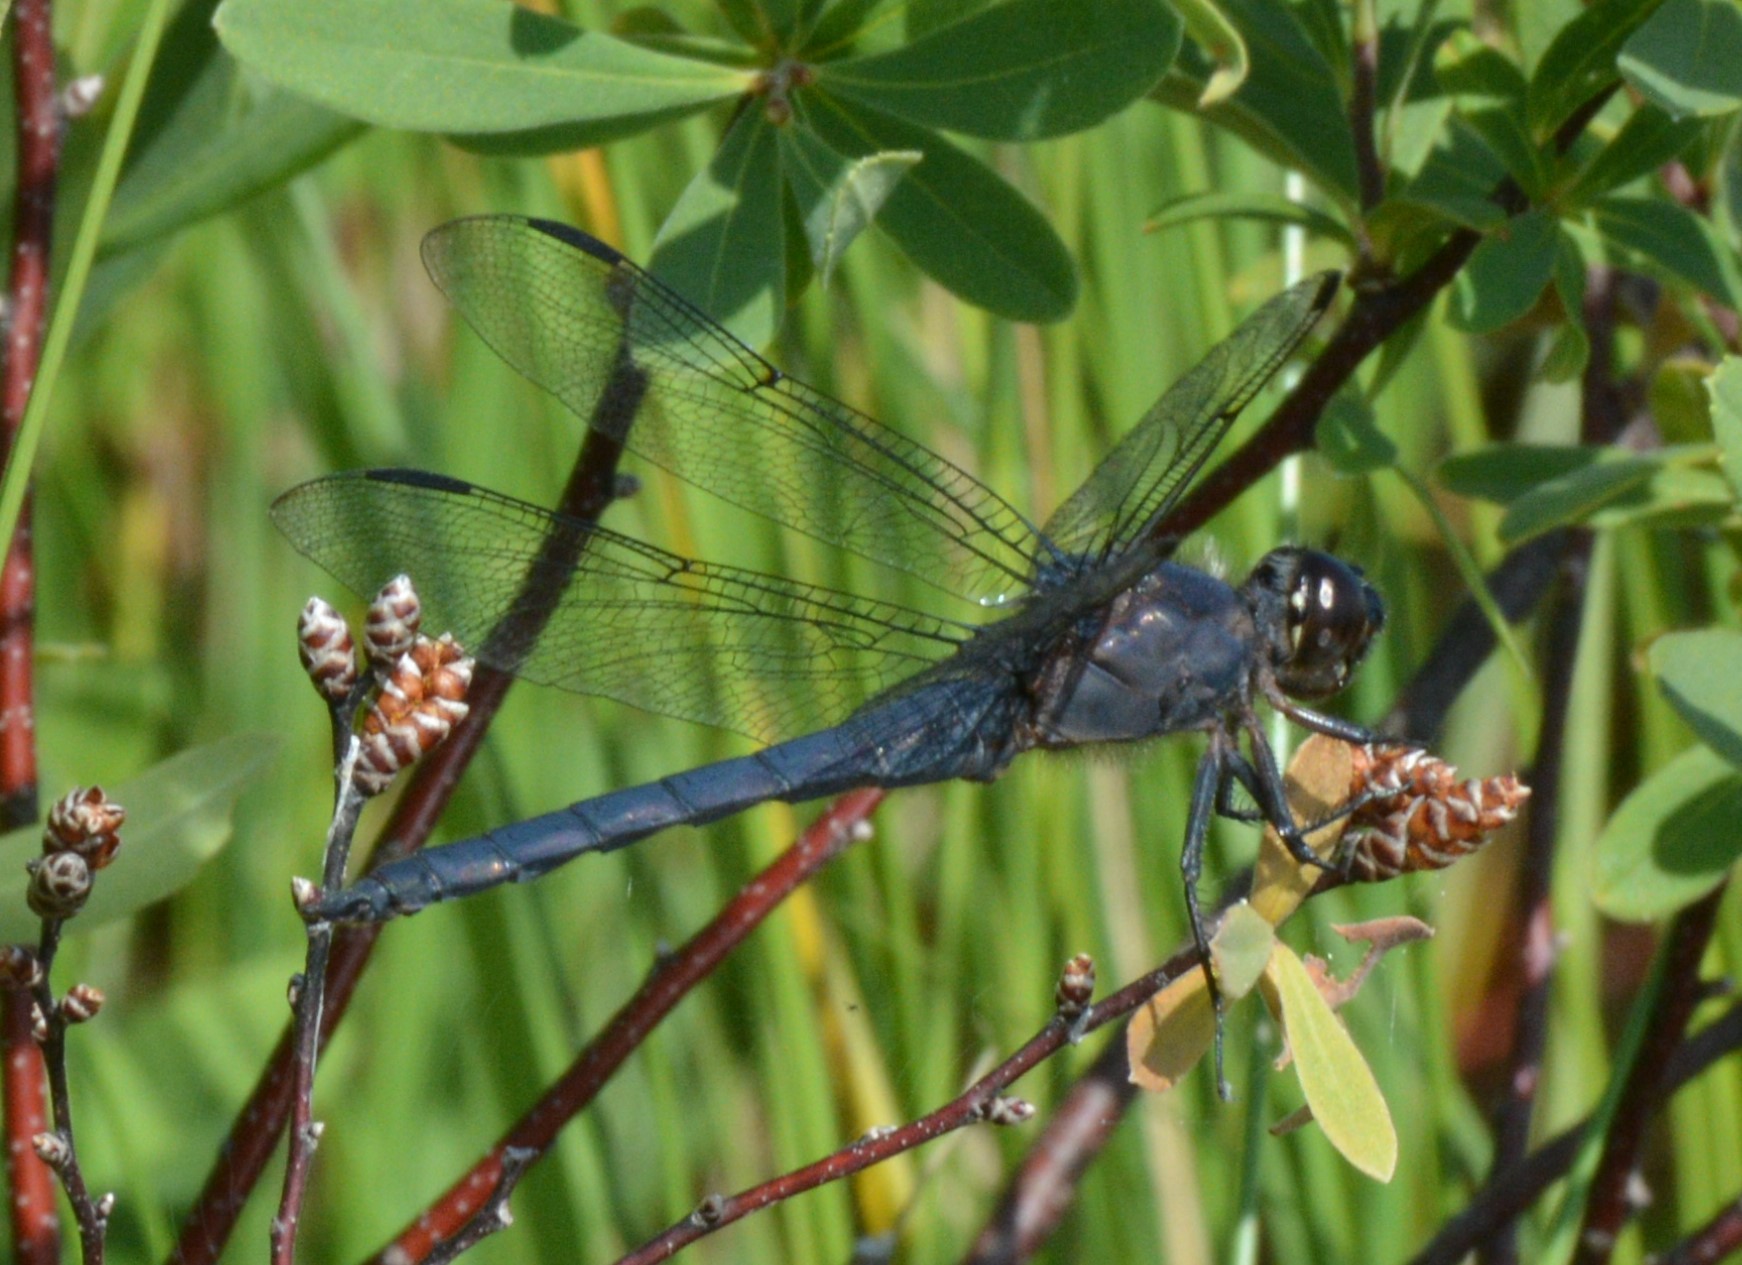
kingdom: Animalia
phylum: Arthropoda
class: Insecta
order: Odonata
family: Libellulidae
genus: Libellula
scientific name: Libellula incesta
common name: Slaty skimmer
